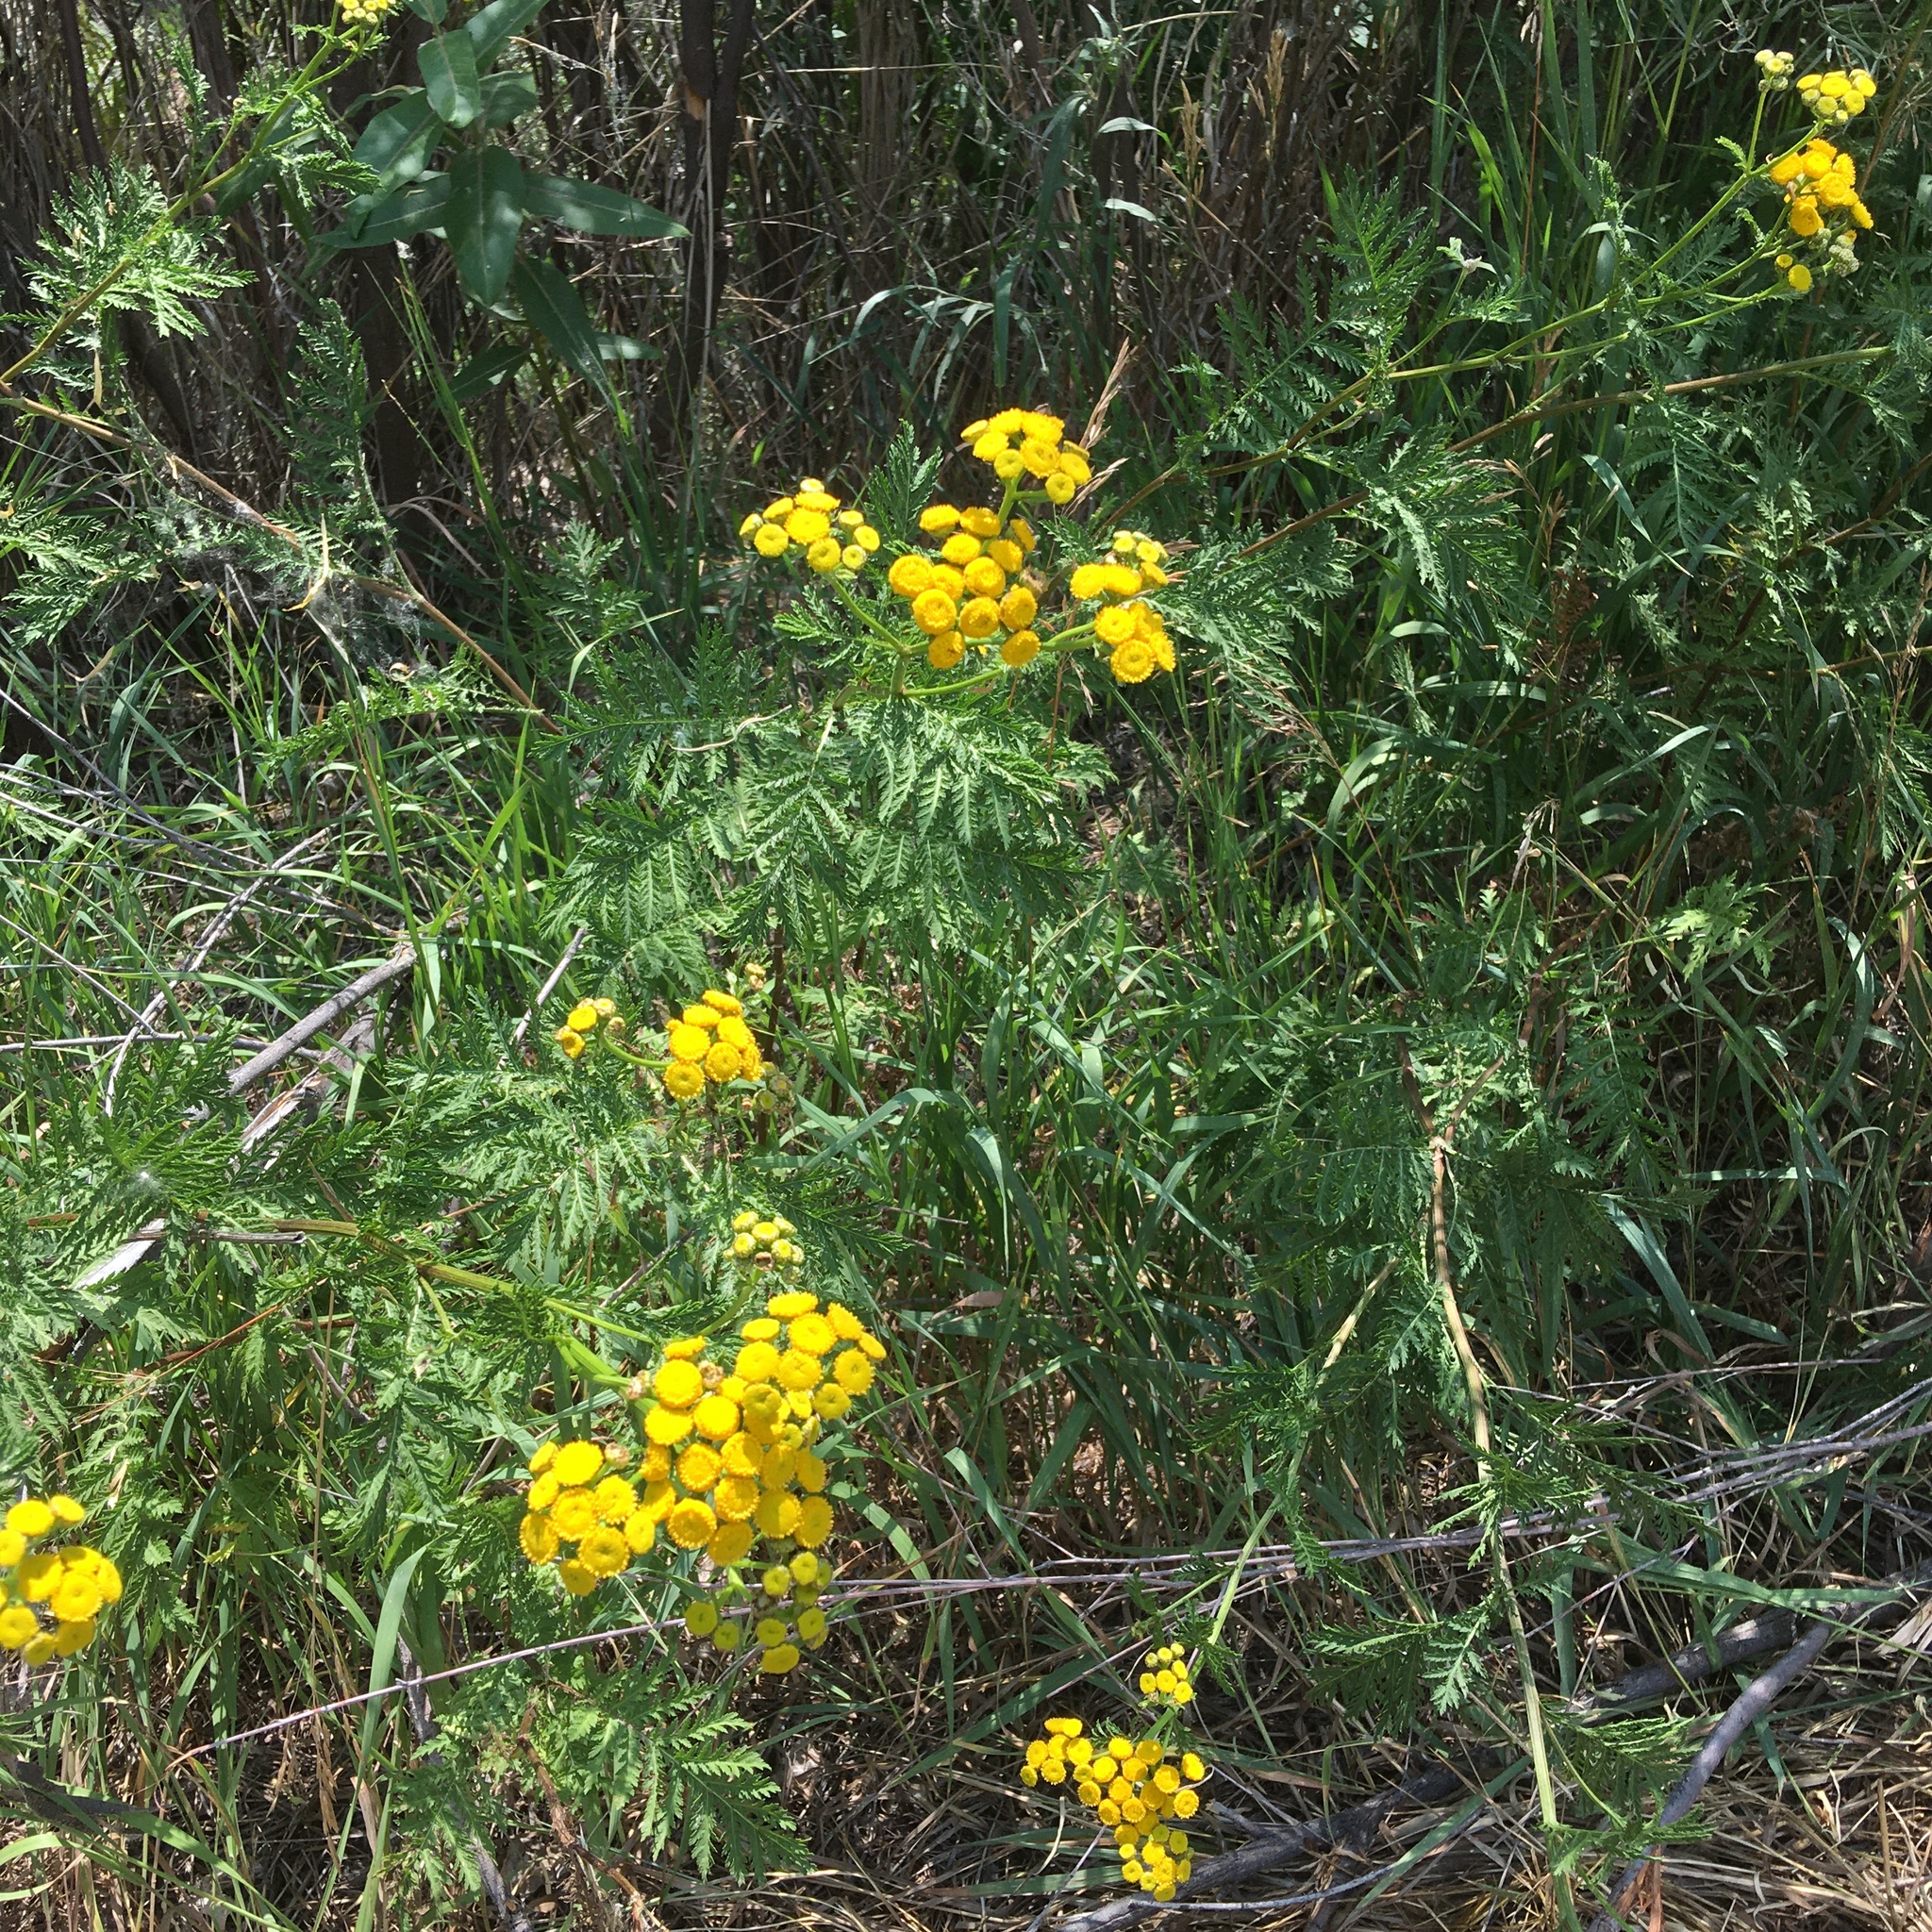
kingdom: Plantae
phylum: Tracheophyta
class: Magnoliopsida
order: Asterales
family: Asteraceae
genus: Tanacetum
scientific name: Tanacetum vulgare
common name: Common tansy
